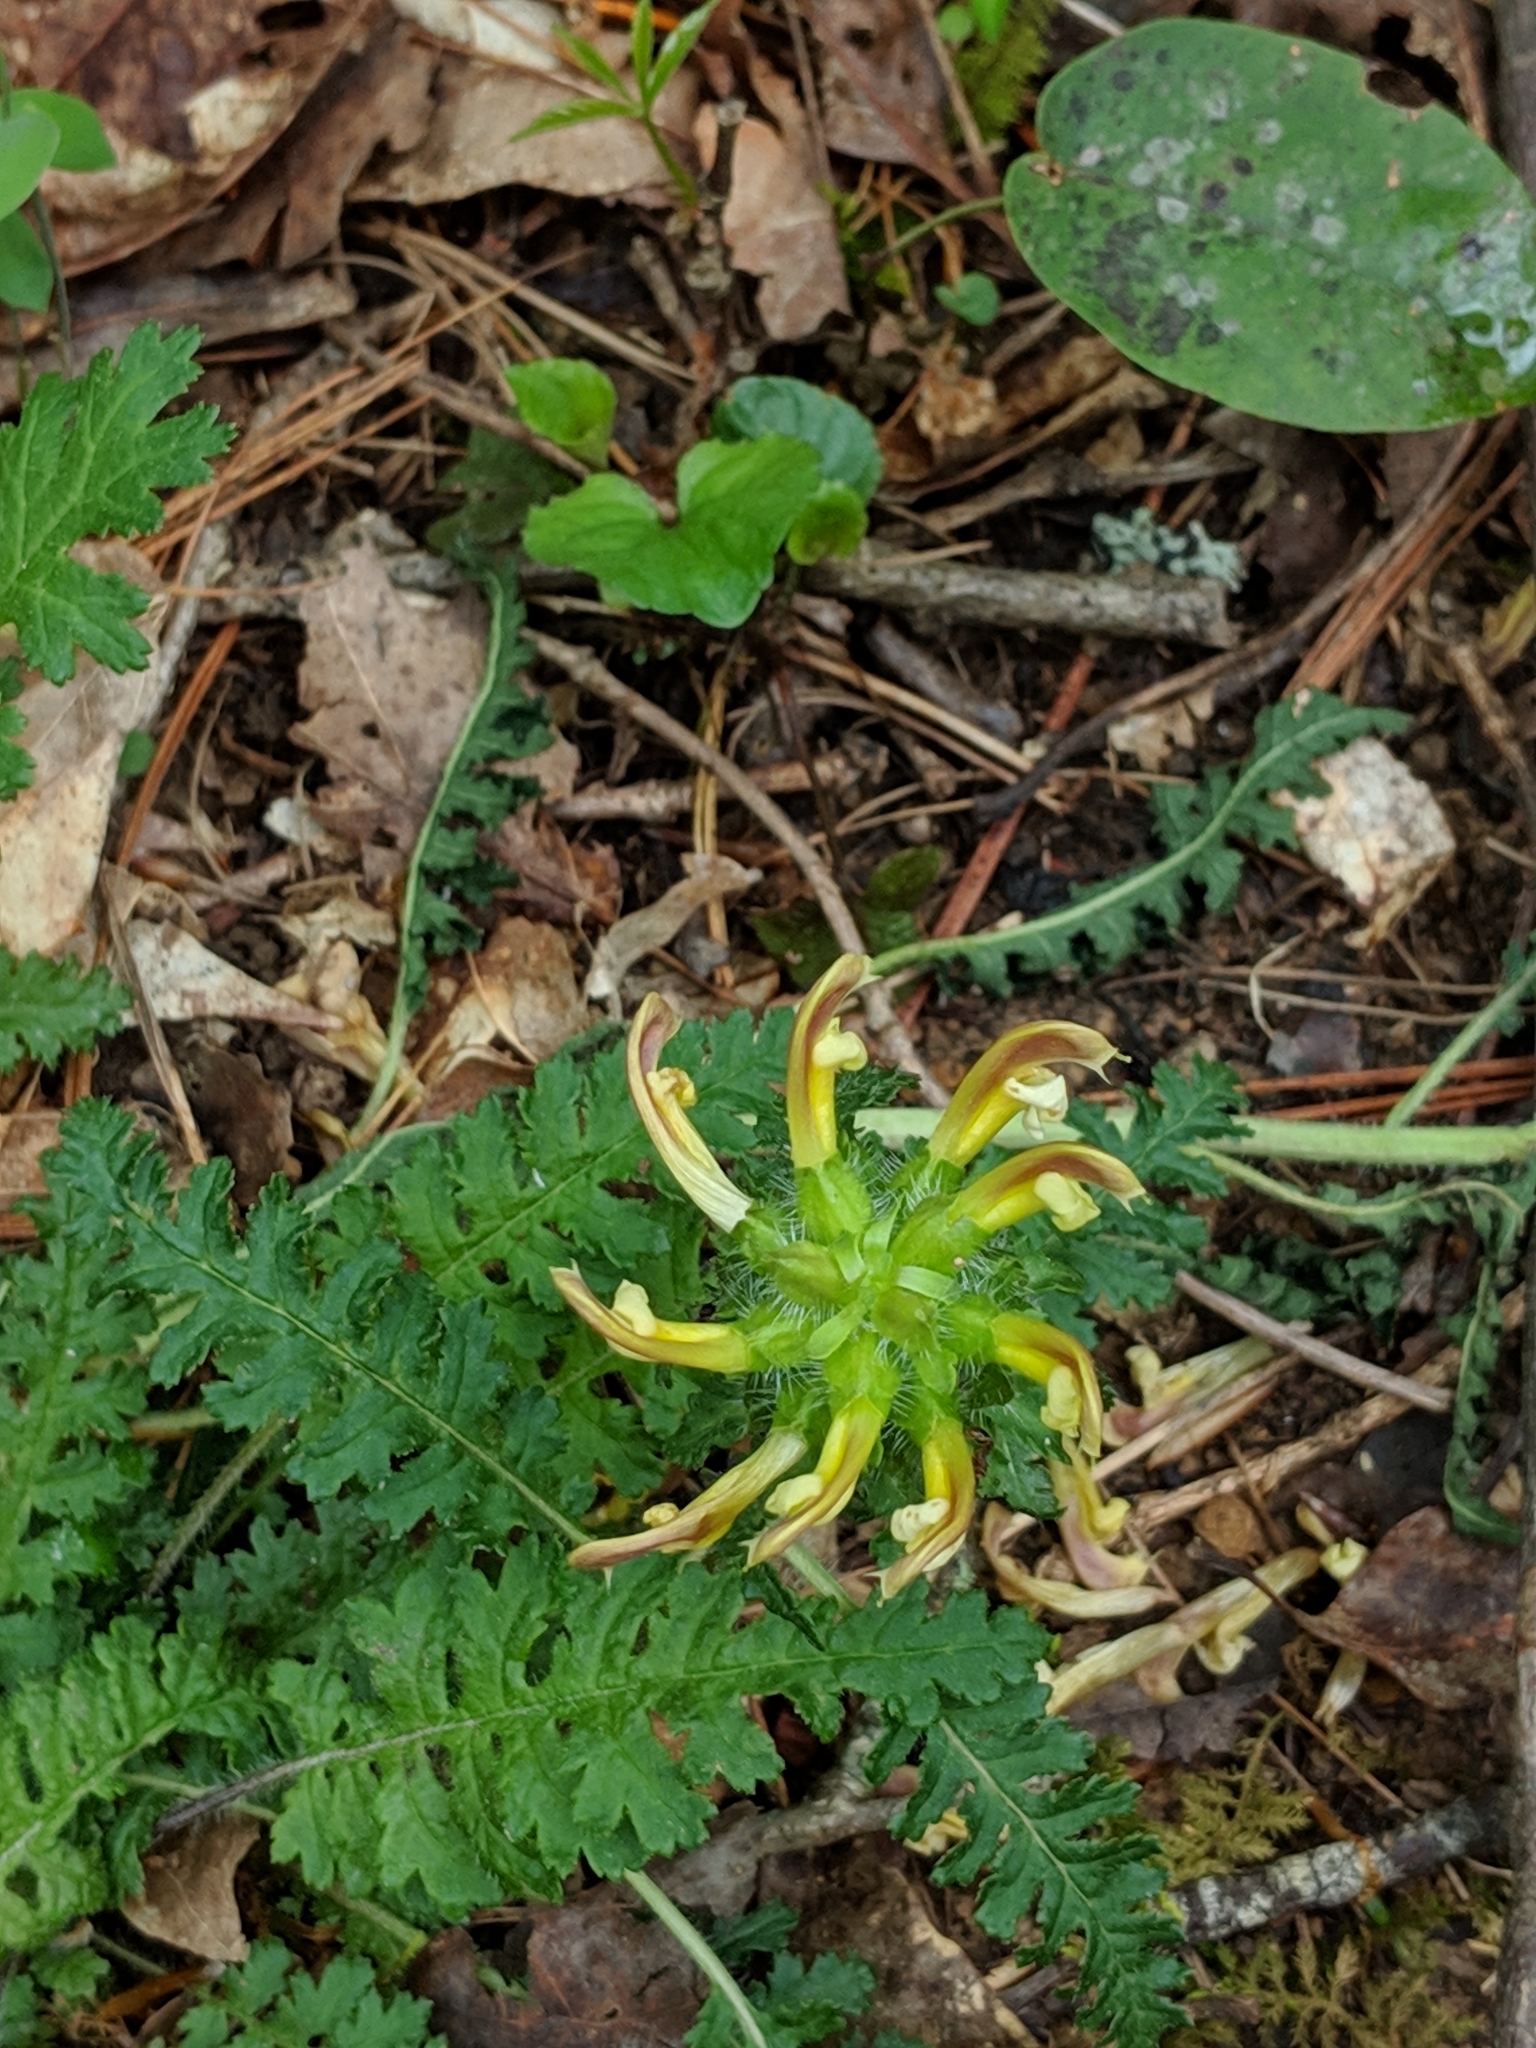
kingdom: Plantae
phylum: Tracheophyta
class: Magnoliopsida
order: Lamiales
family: Orobanchaceae
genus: Pedicularis
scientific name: Pedicularis canadensis
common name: Early lousewort
